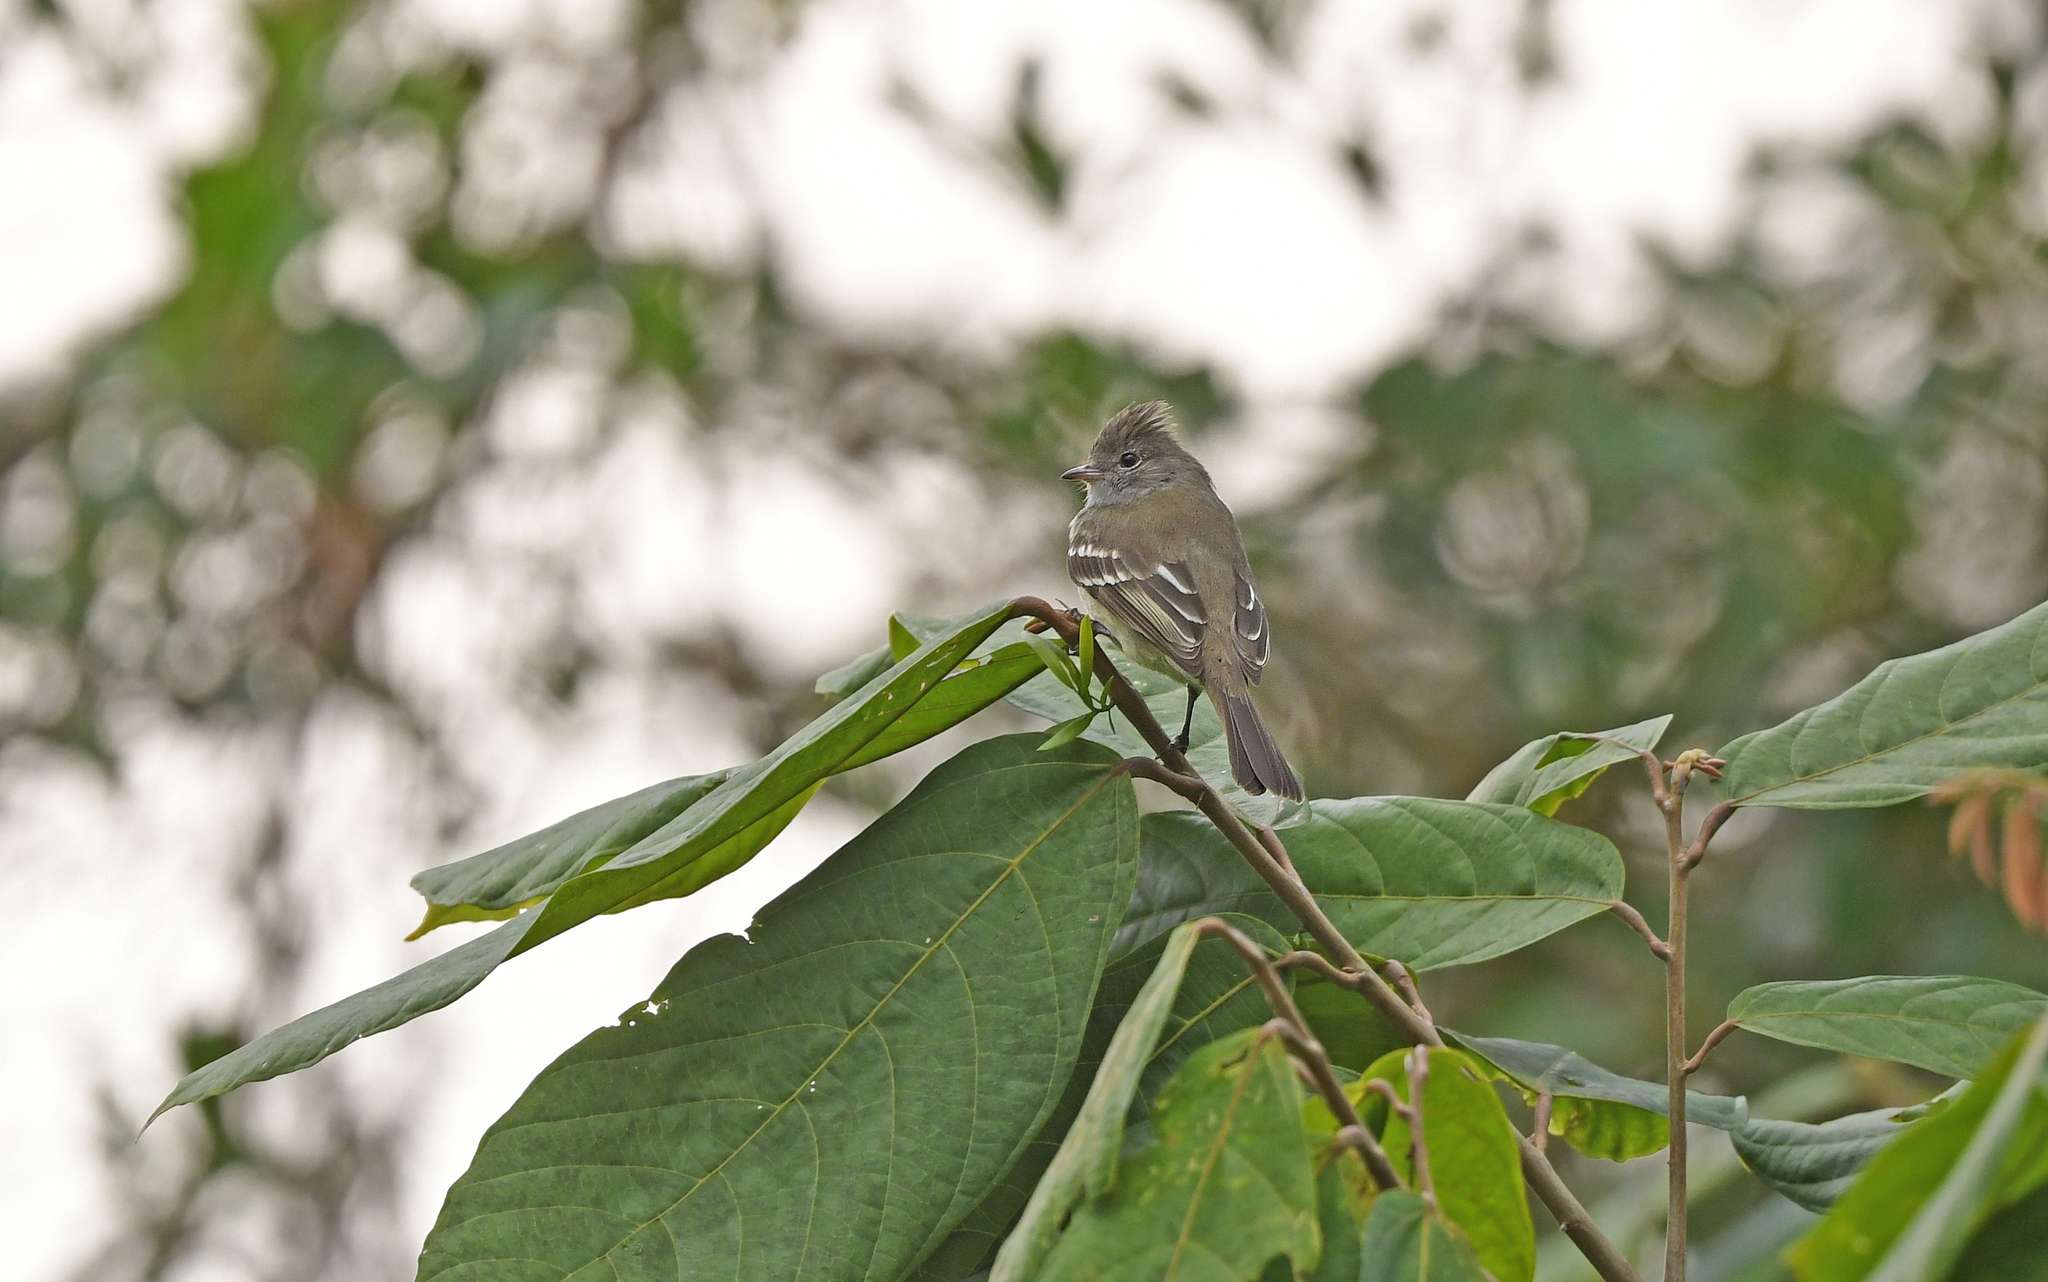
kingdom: Animalia
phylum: Chordata
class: Aves
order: Passeriformes
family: Tyrannidae
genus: Elaenia
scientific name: Elaenia flavogaster
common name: Yellow-bellied elaenia
